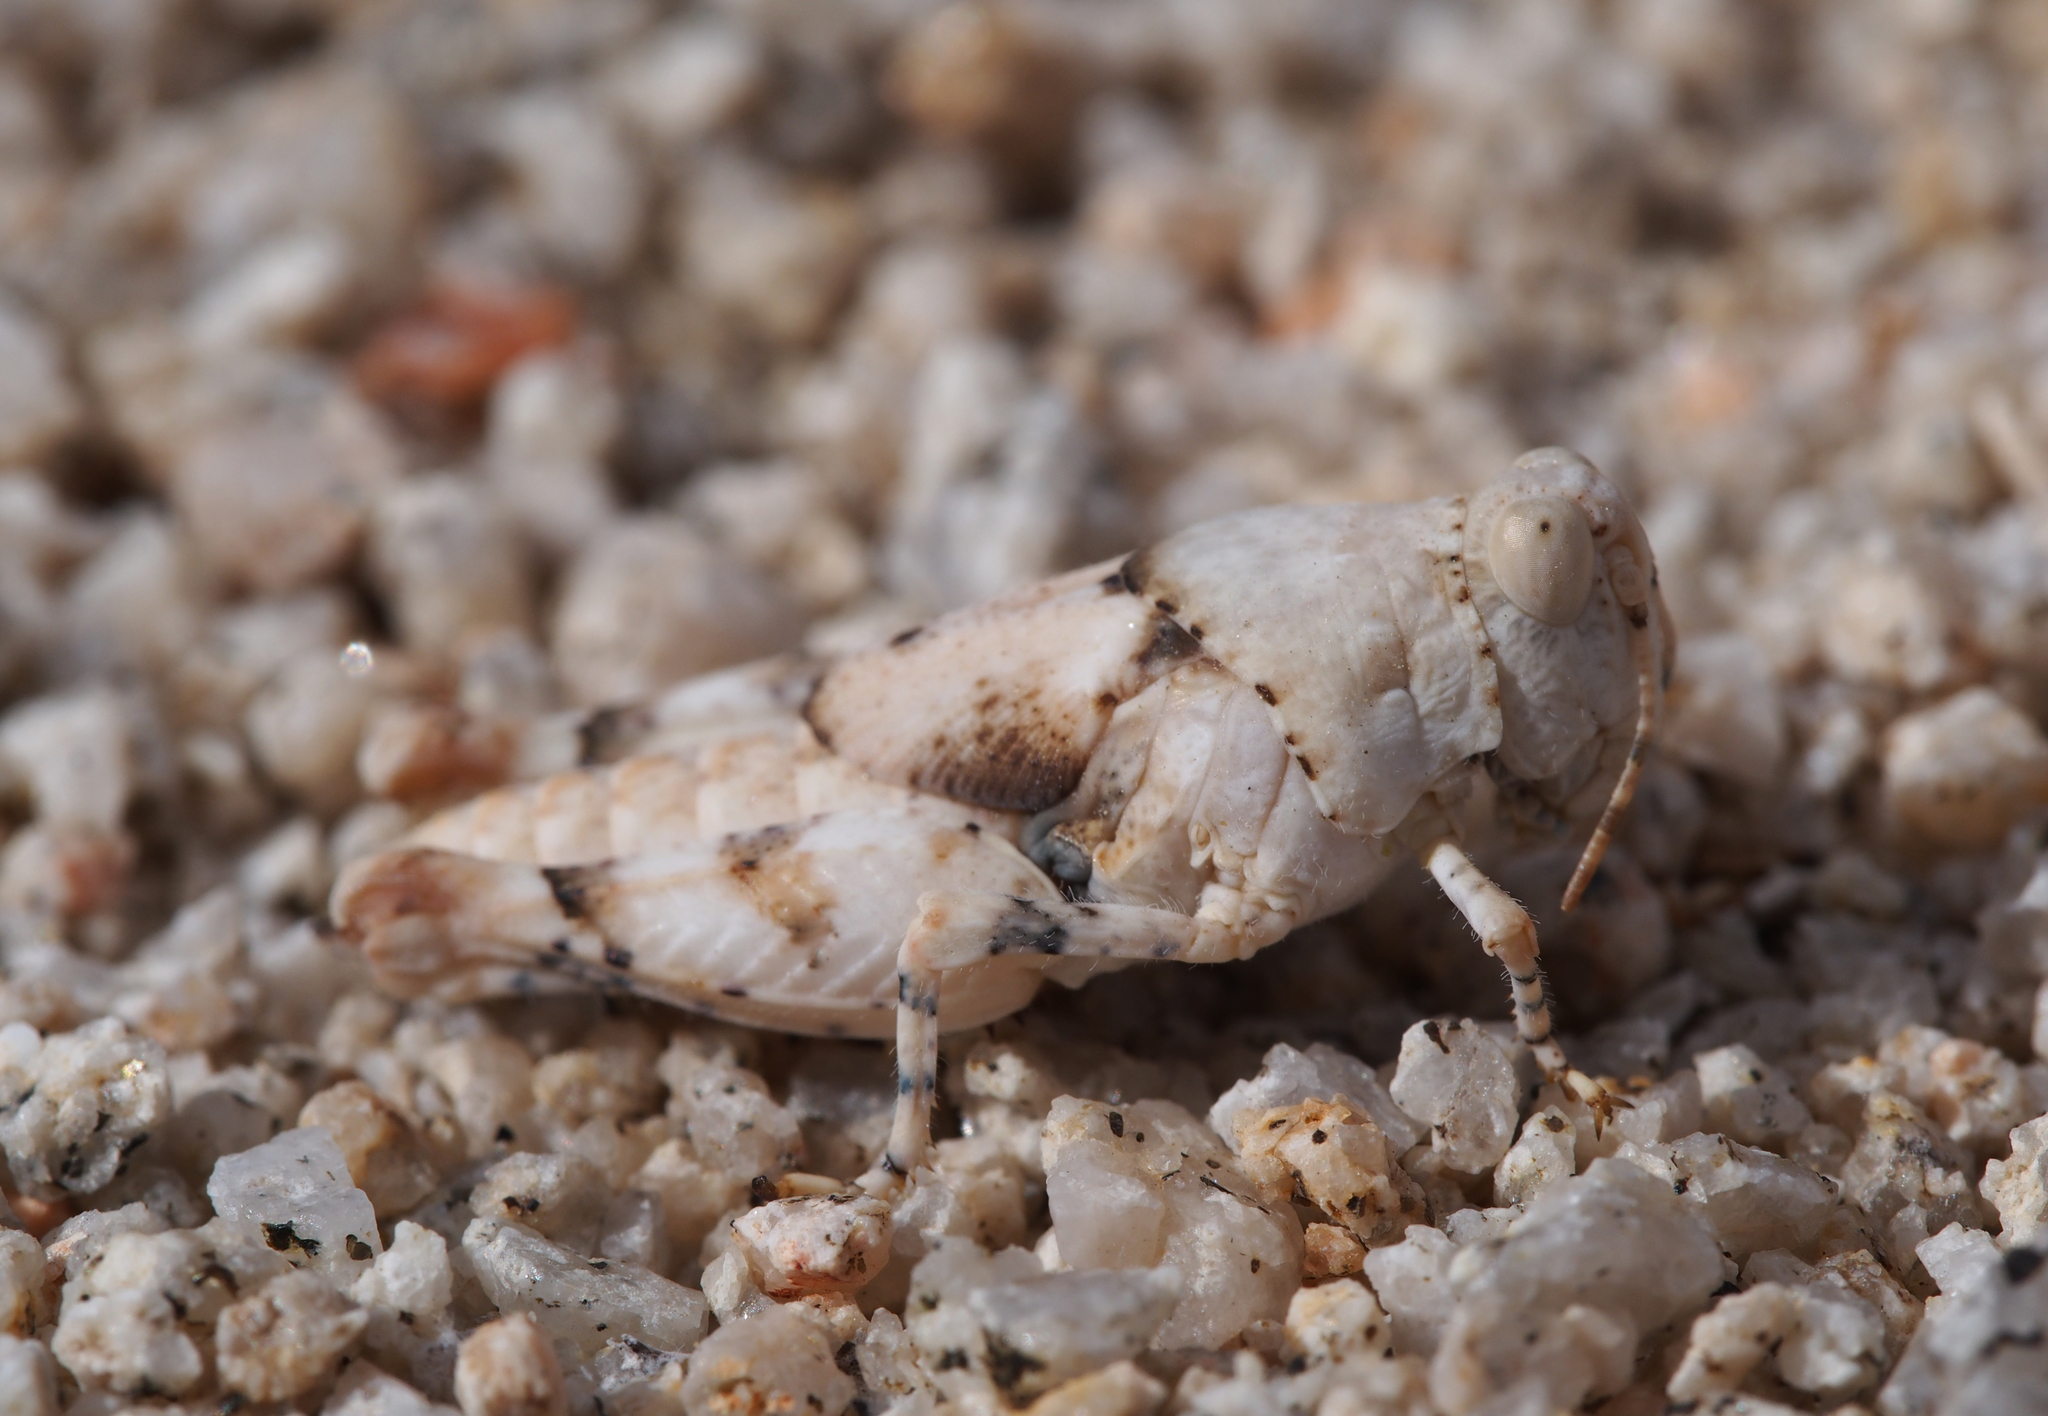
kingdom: Animalia
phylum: Arthropoda
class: Insecta
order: Orthoptera
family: Acrididae
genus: Cibolacris
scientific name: Cibolacris parviceps
